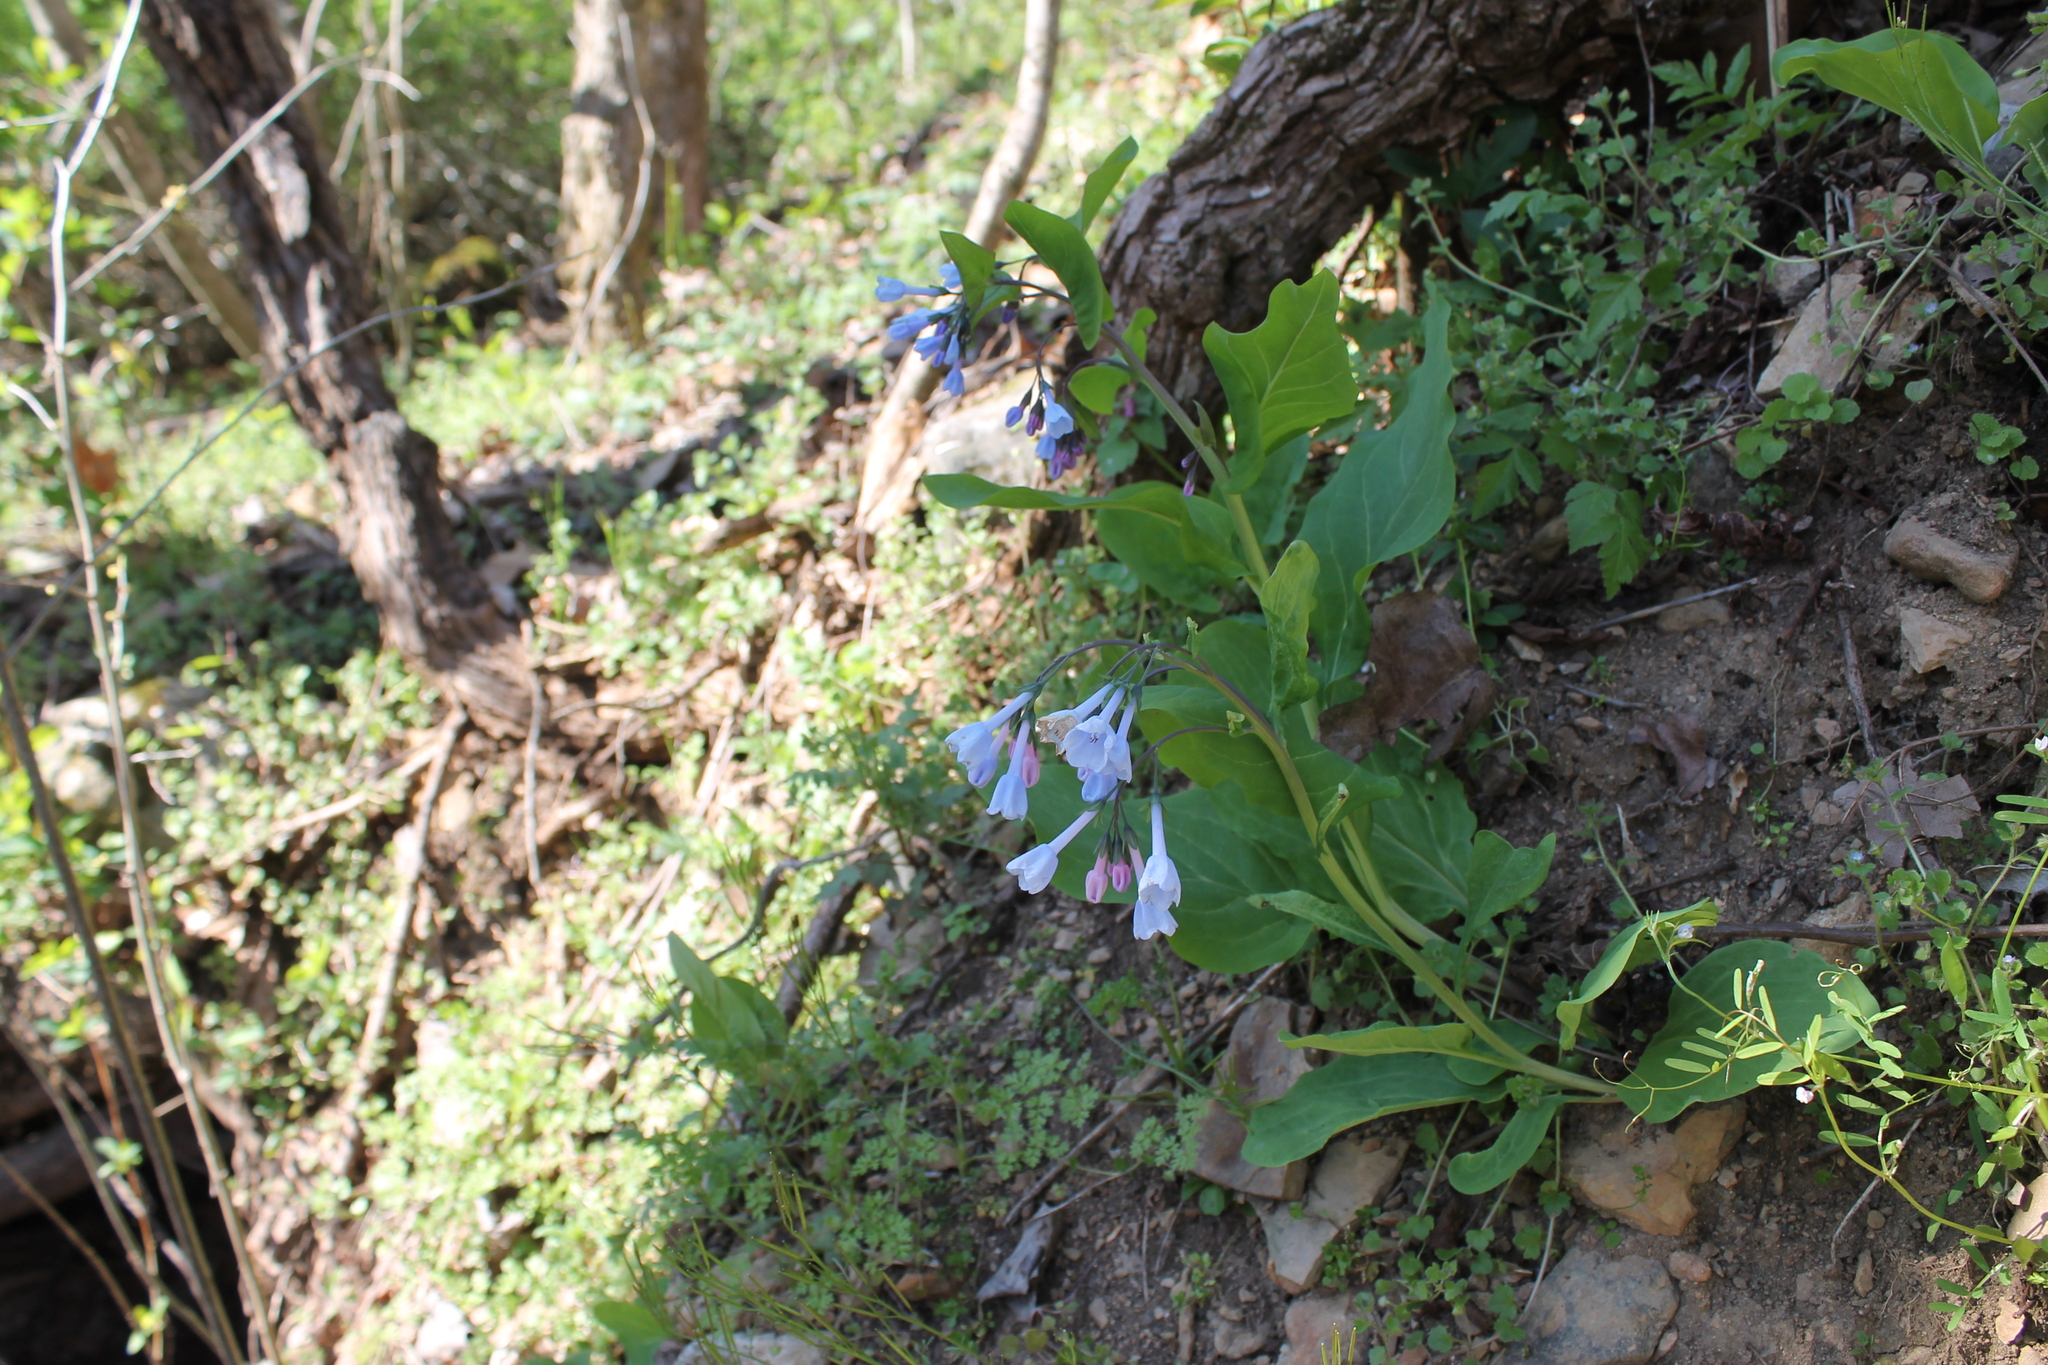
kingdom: Plantae
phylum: Tracheophyta
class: Magnoliopsida
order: Boraginales
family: Boraginaceae
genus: Mertensia
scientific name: Mertensia virginica
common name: Virginia bluebells
